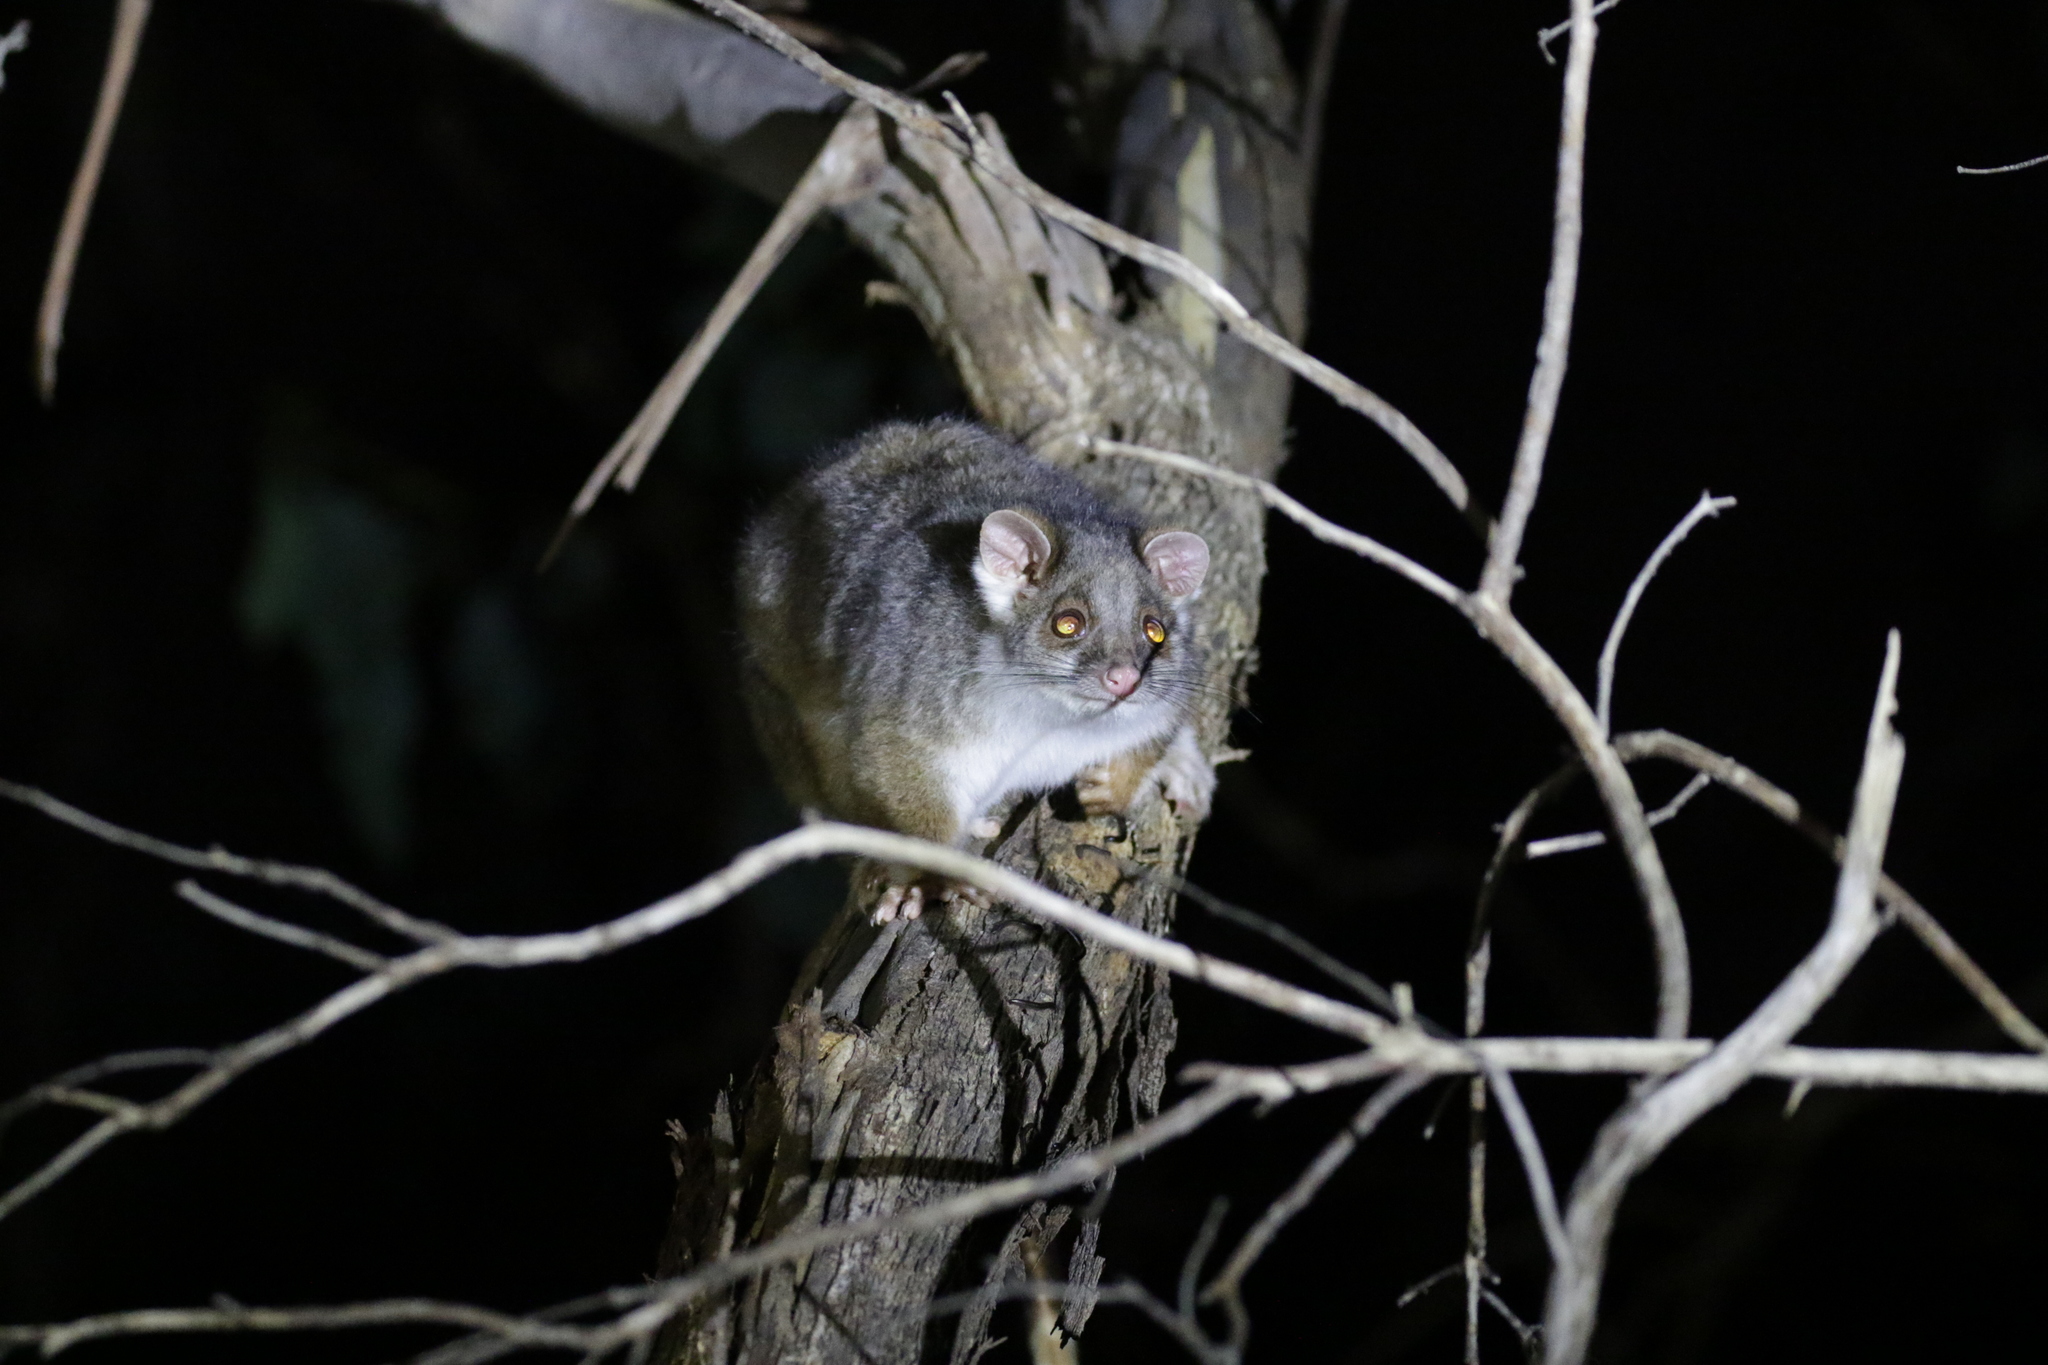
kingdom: Animalia
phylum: Chordata
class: Mammalia
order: Diprotodontia
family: Pseudocheiridae
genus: Pseudocheirus
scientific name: Pseudocheirus peregrinus
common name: Common ringtail possum
